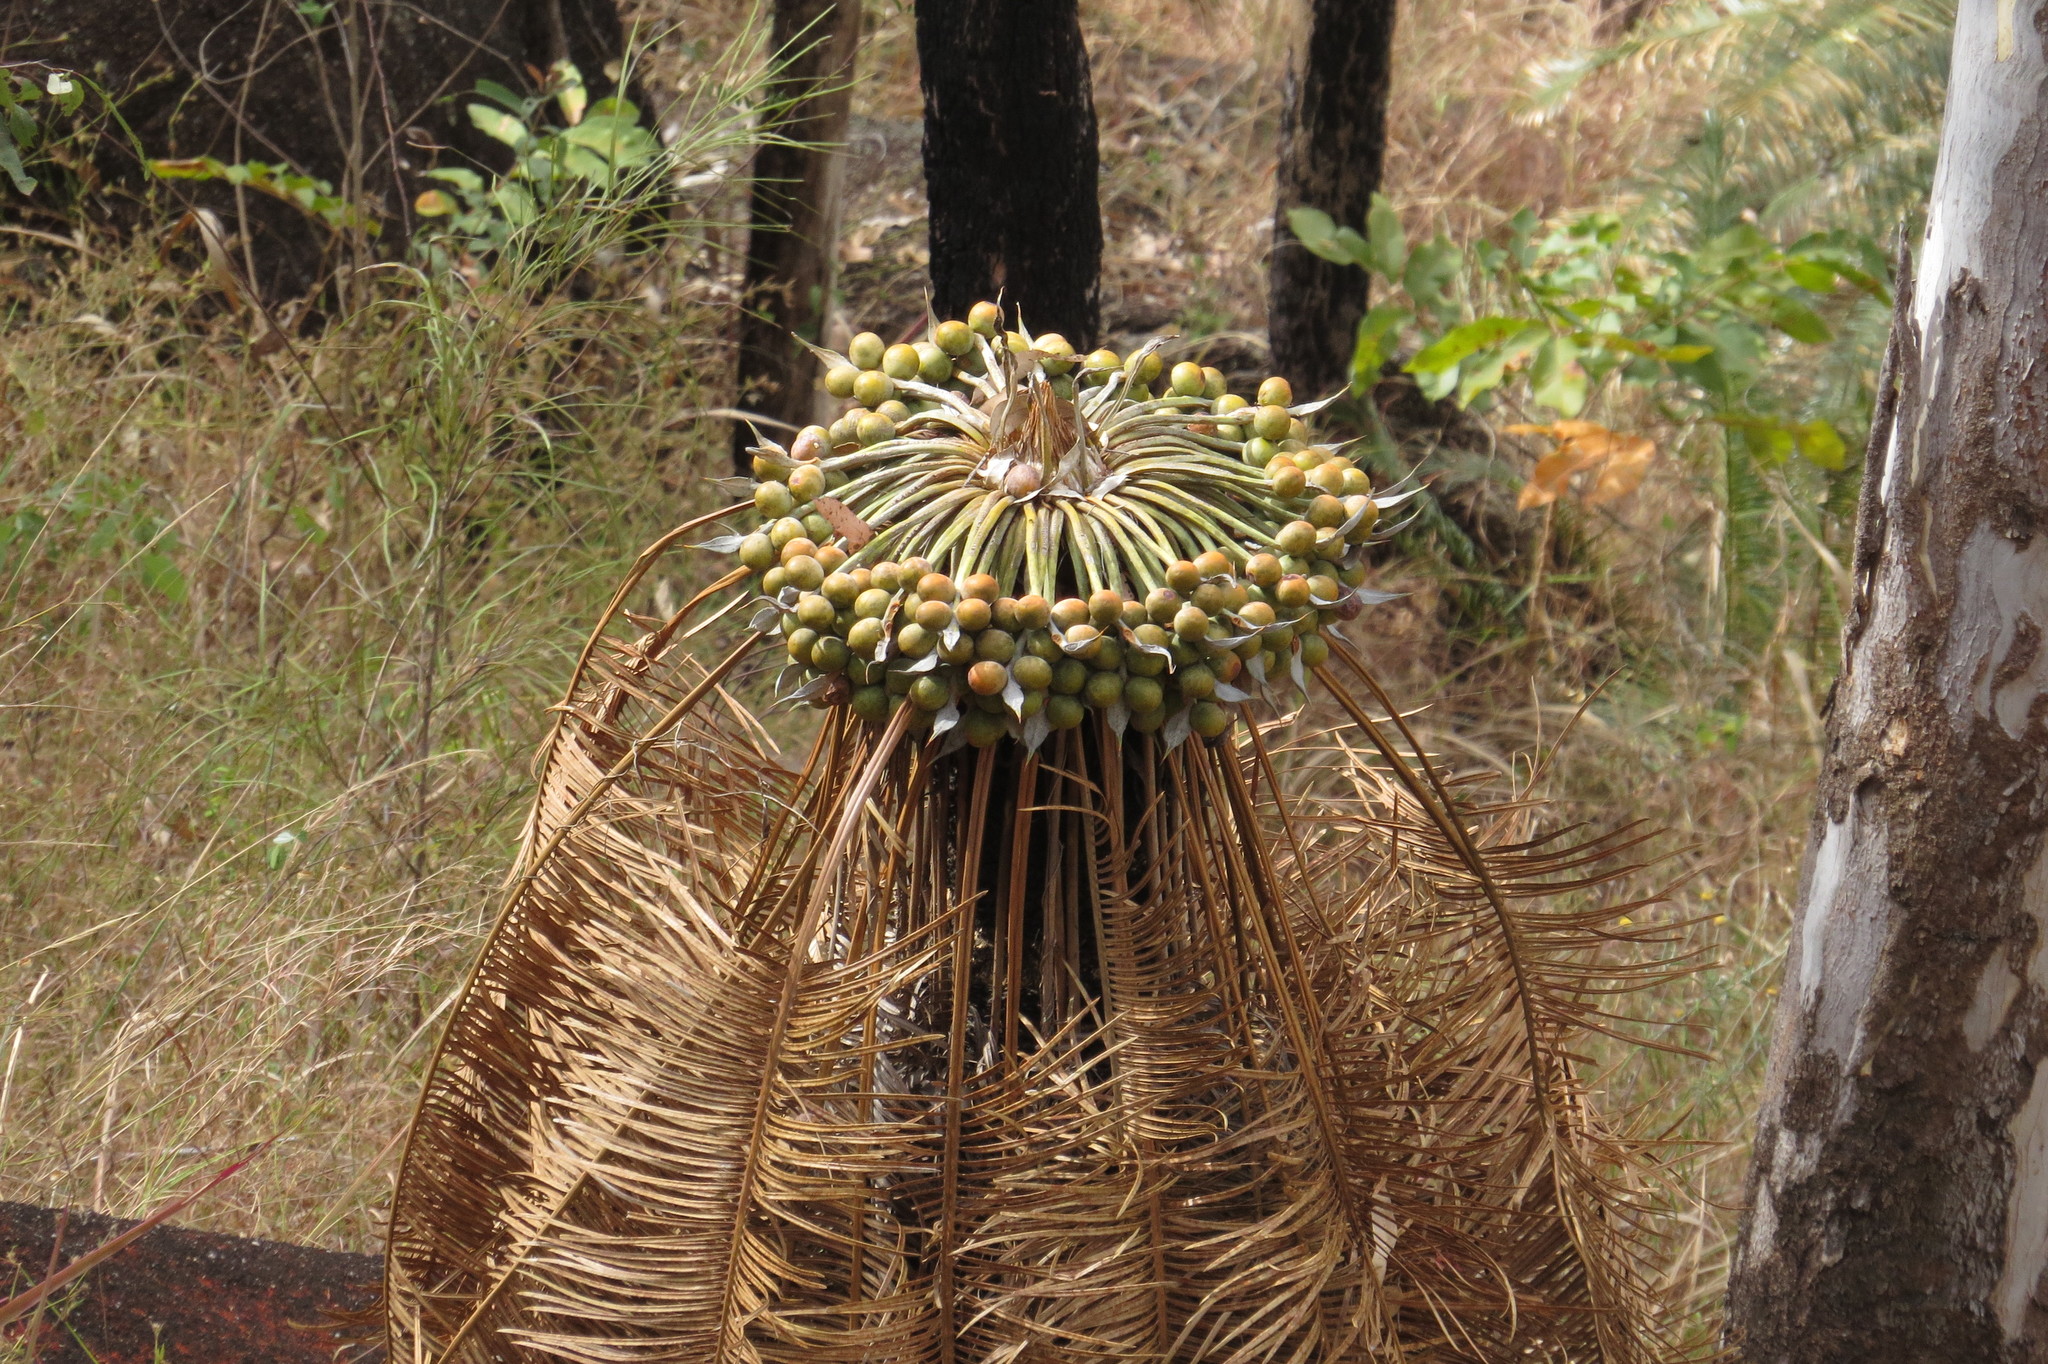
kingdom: Plantae
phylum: Tracheophyta
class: Cycadopsida
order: Cycadales
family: Cycadaceae
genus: Cycas
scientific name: Cycas media
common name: Queensland cycas
